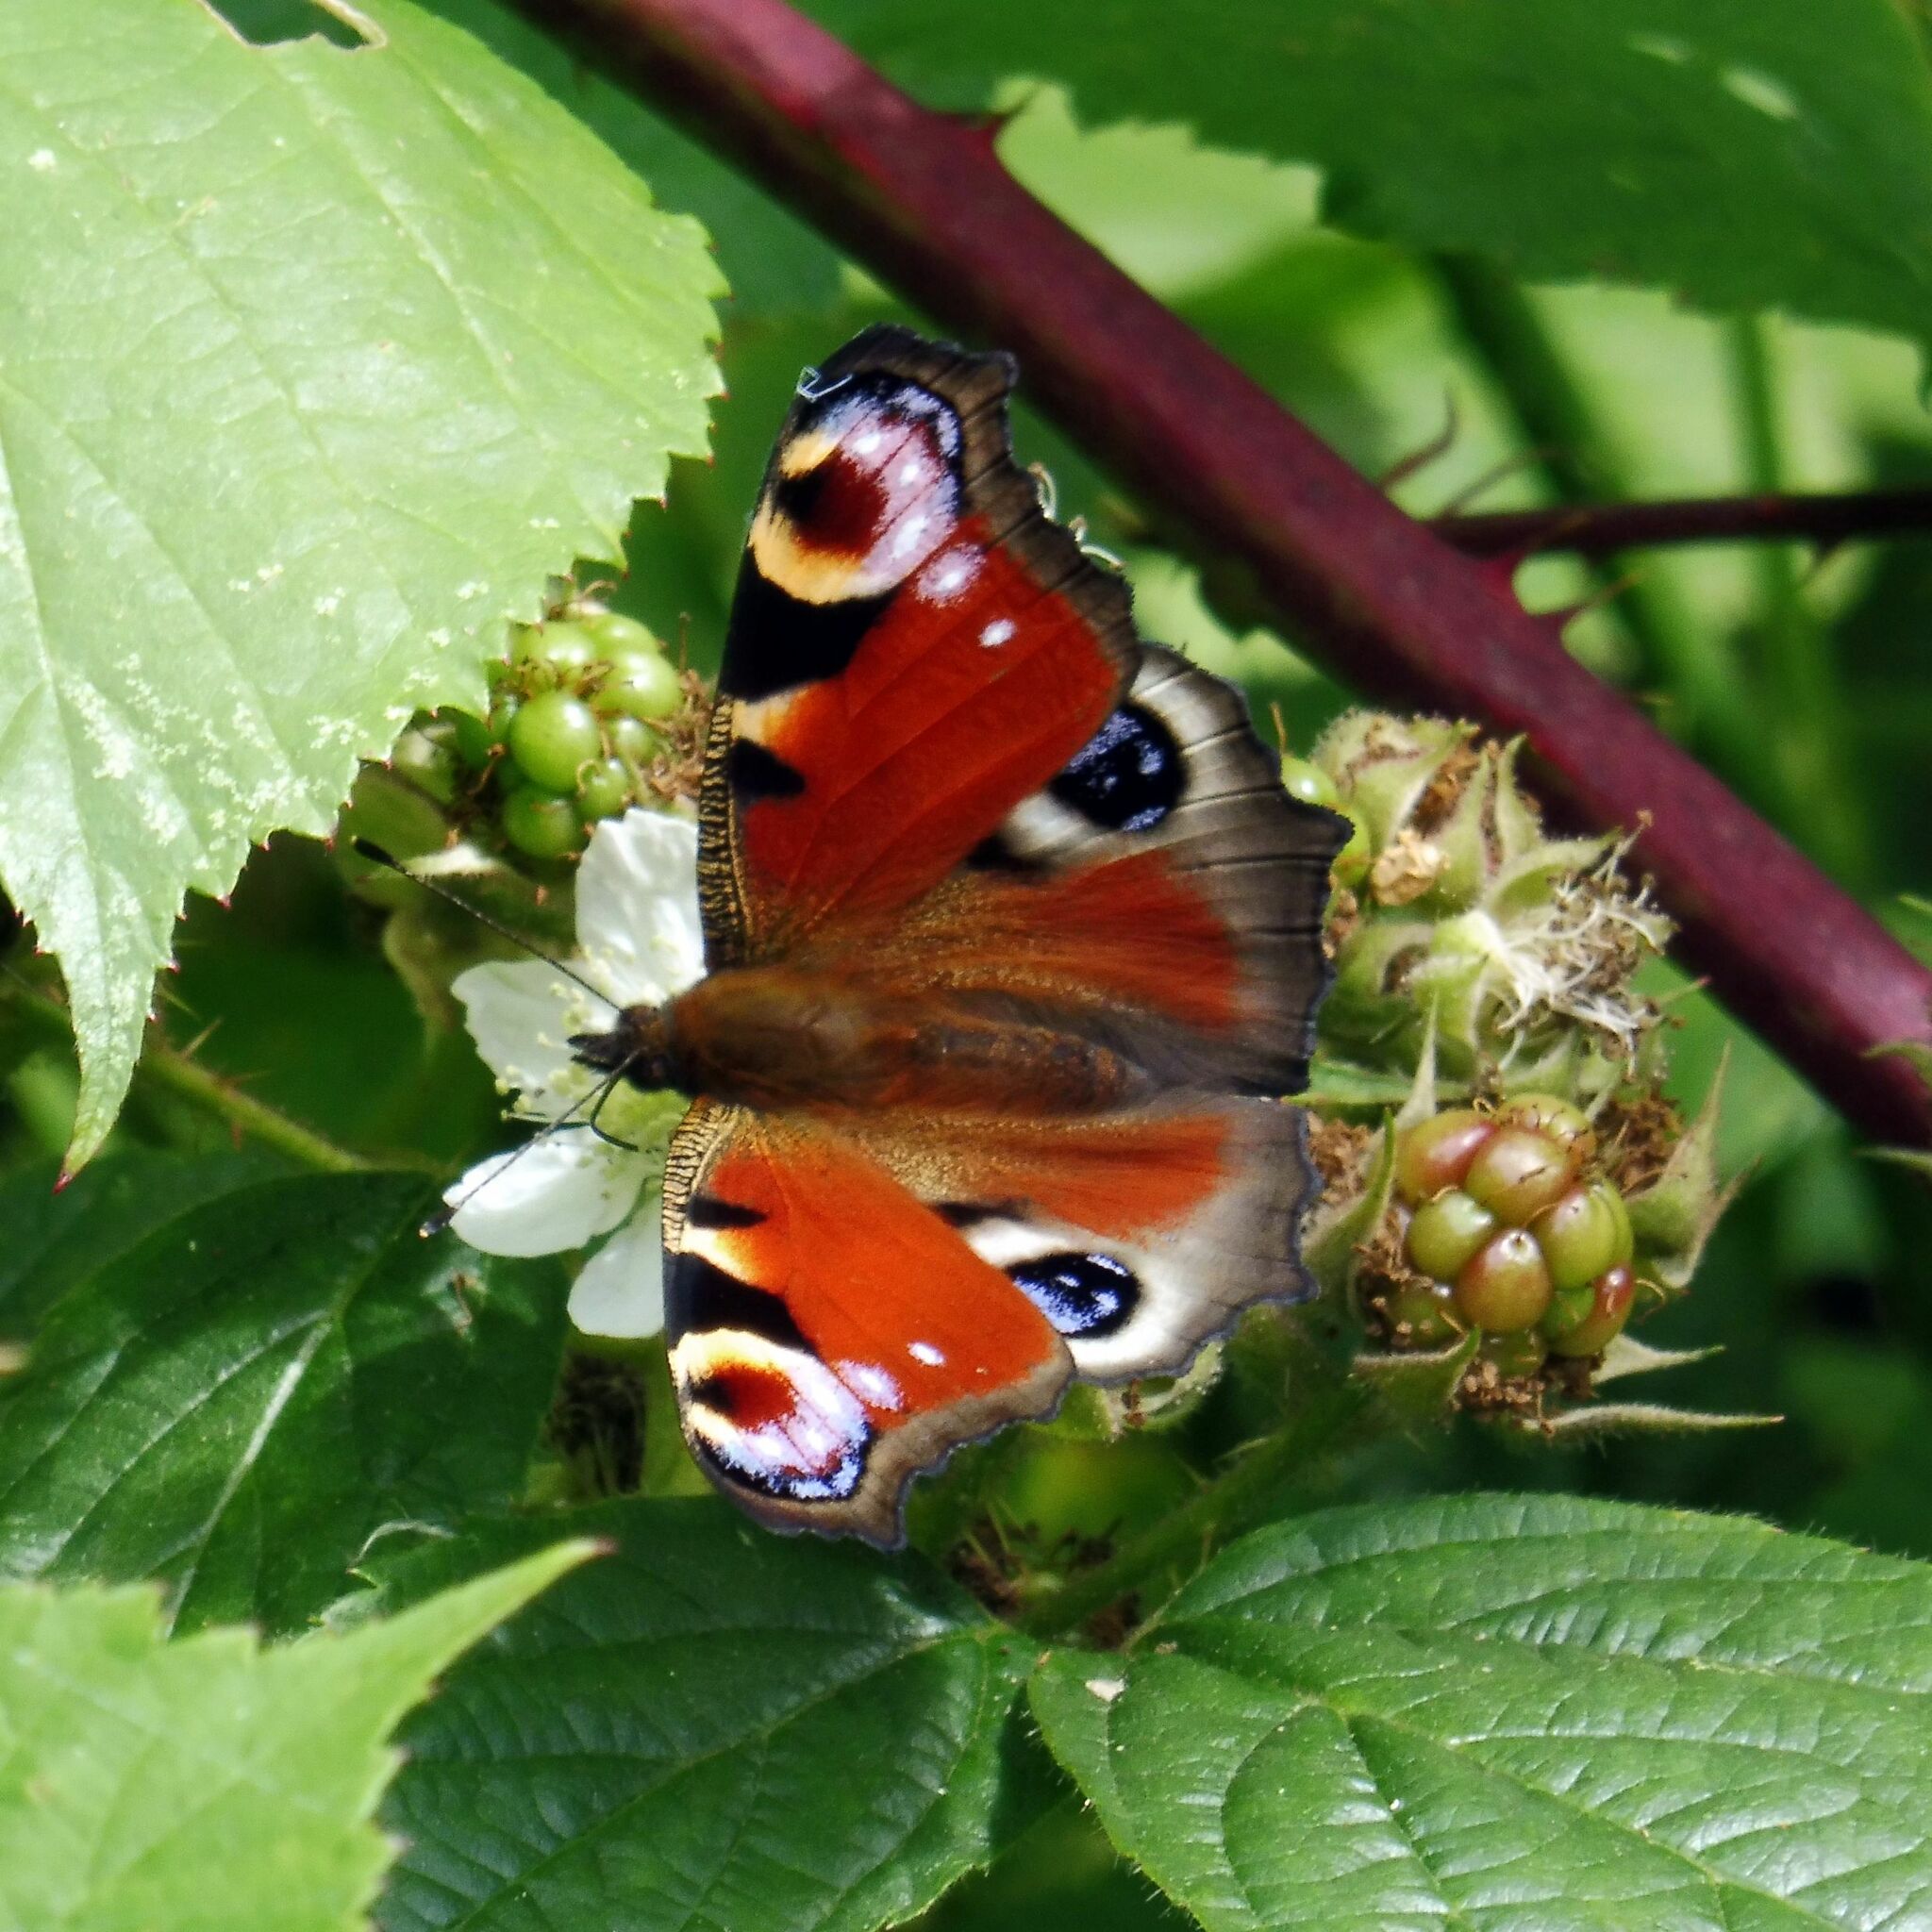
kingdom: Animalia
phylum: Arthropoda
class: Insecta
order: Lepidoptera
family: Nymphalidae
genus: Aglais
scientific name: Aglais io
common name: Peacock
